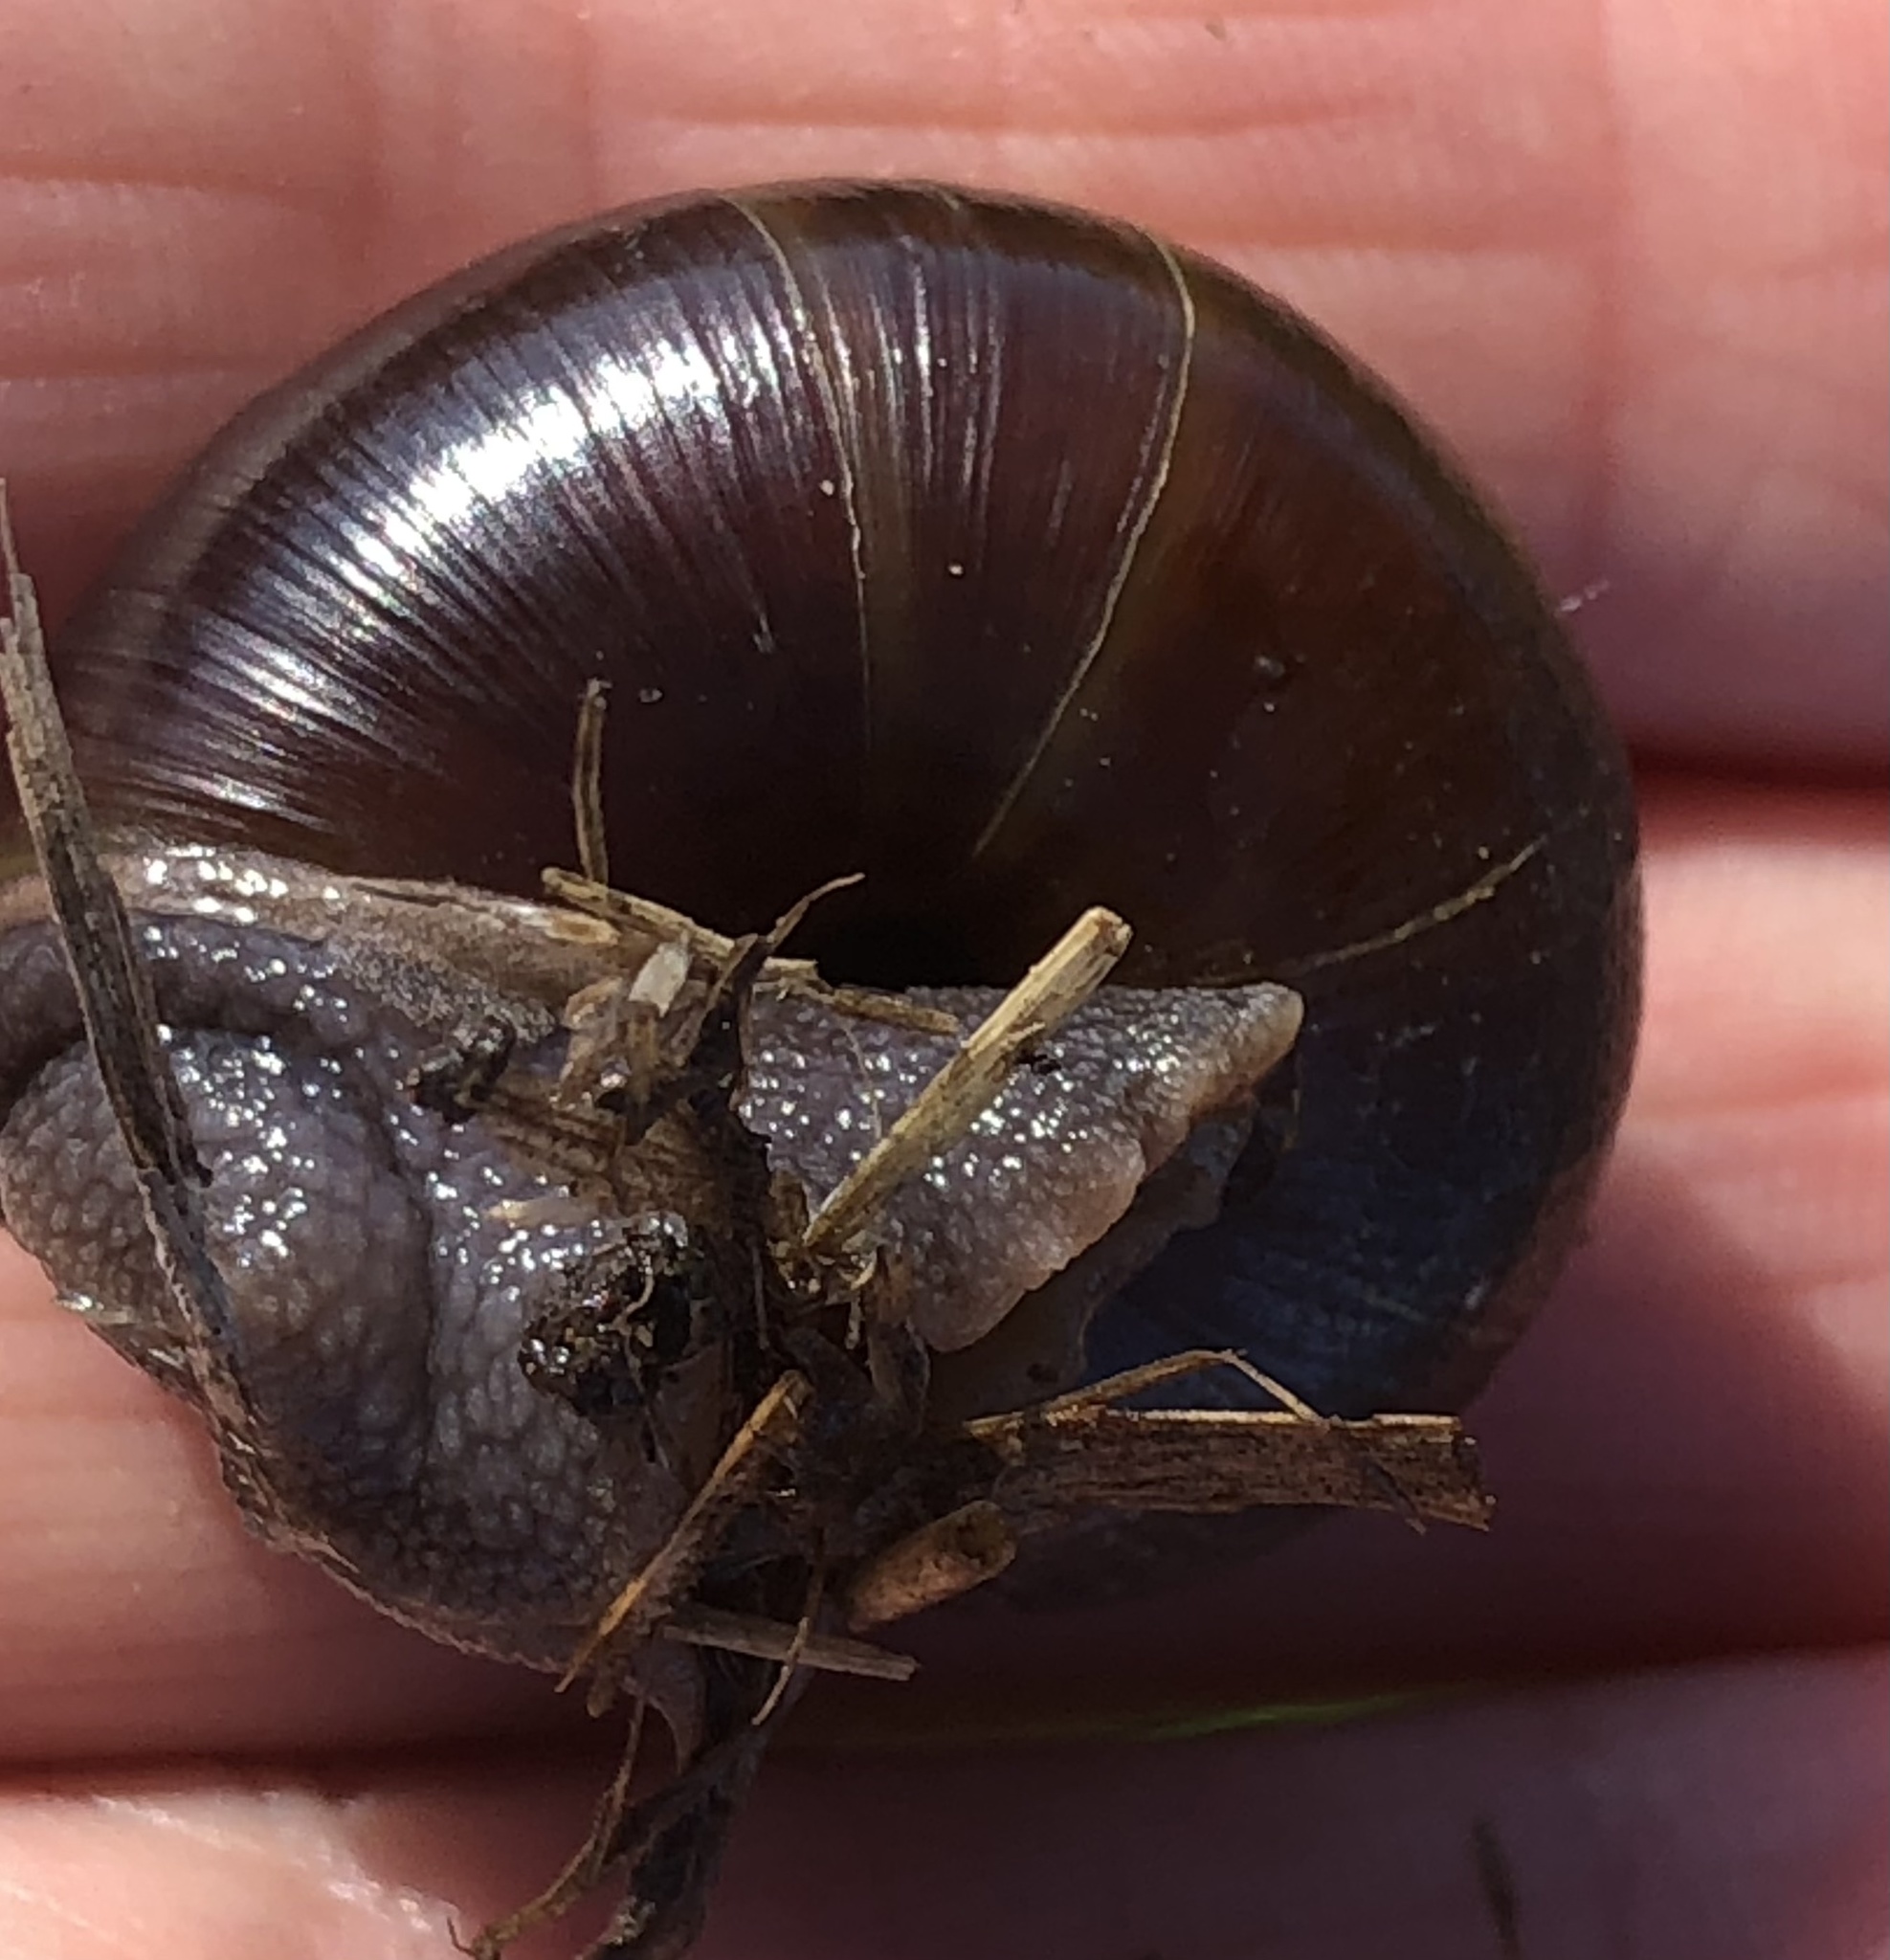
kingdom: Animalia
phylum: Mollusca
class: Gastropoda
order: Stylommatophora
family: Xanthonychidae
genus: Helminthoglypta
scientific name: Helminthoglypta umbilicata
